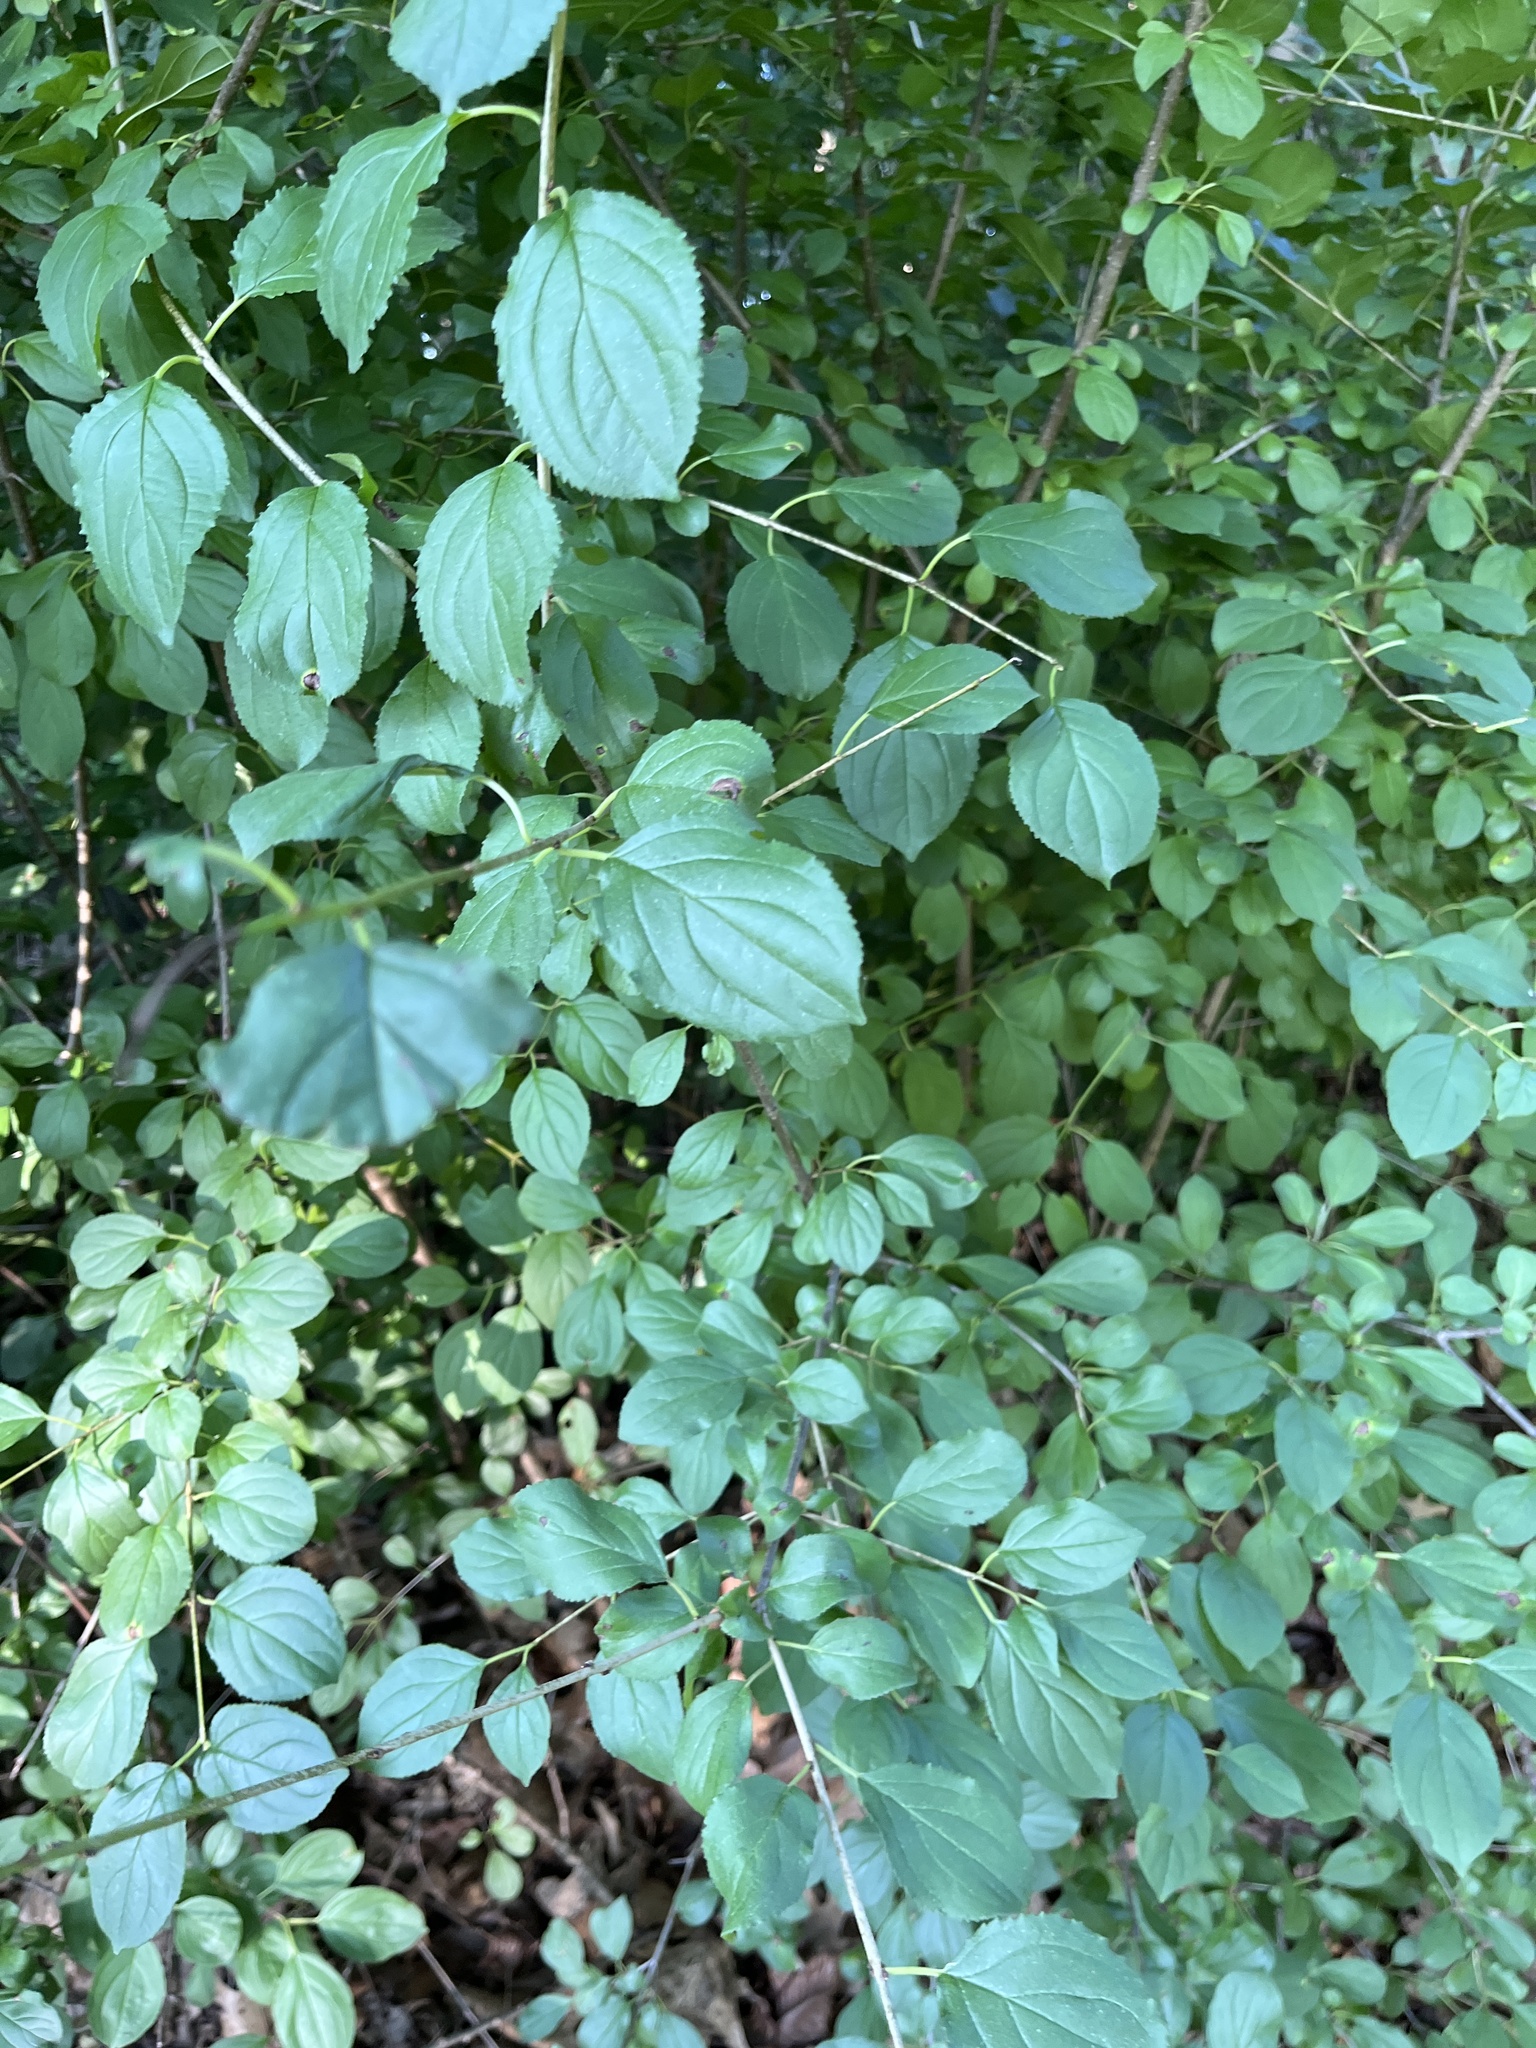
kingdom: Plantae
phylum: Tracheophyta
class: Magnoliopsida
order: Rosales
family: Rhamnaceae
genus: Rhamnus
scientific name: Rhamnus cathartica
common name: Common buckthorn
